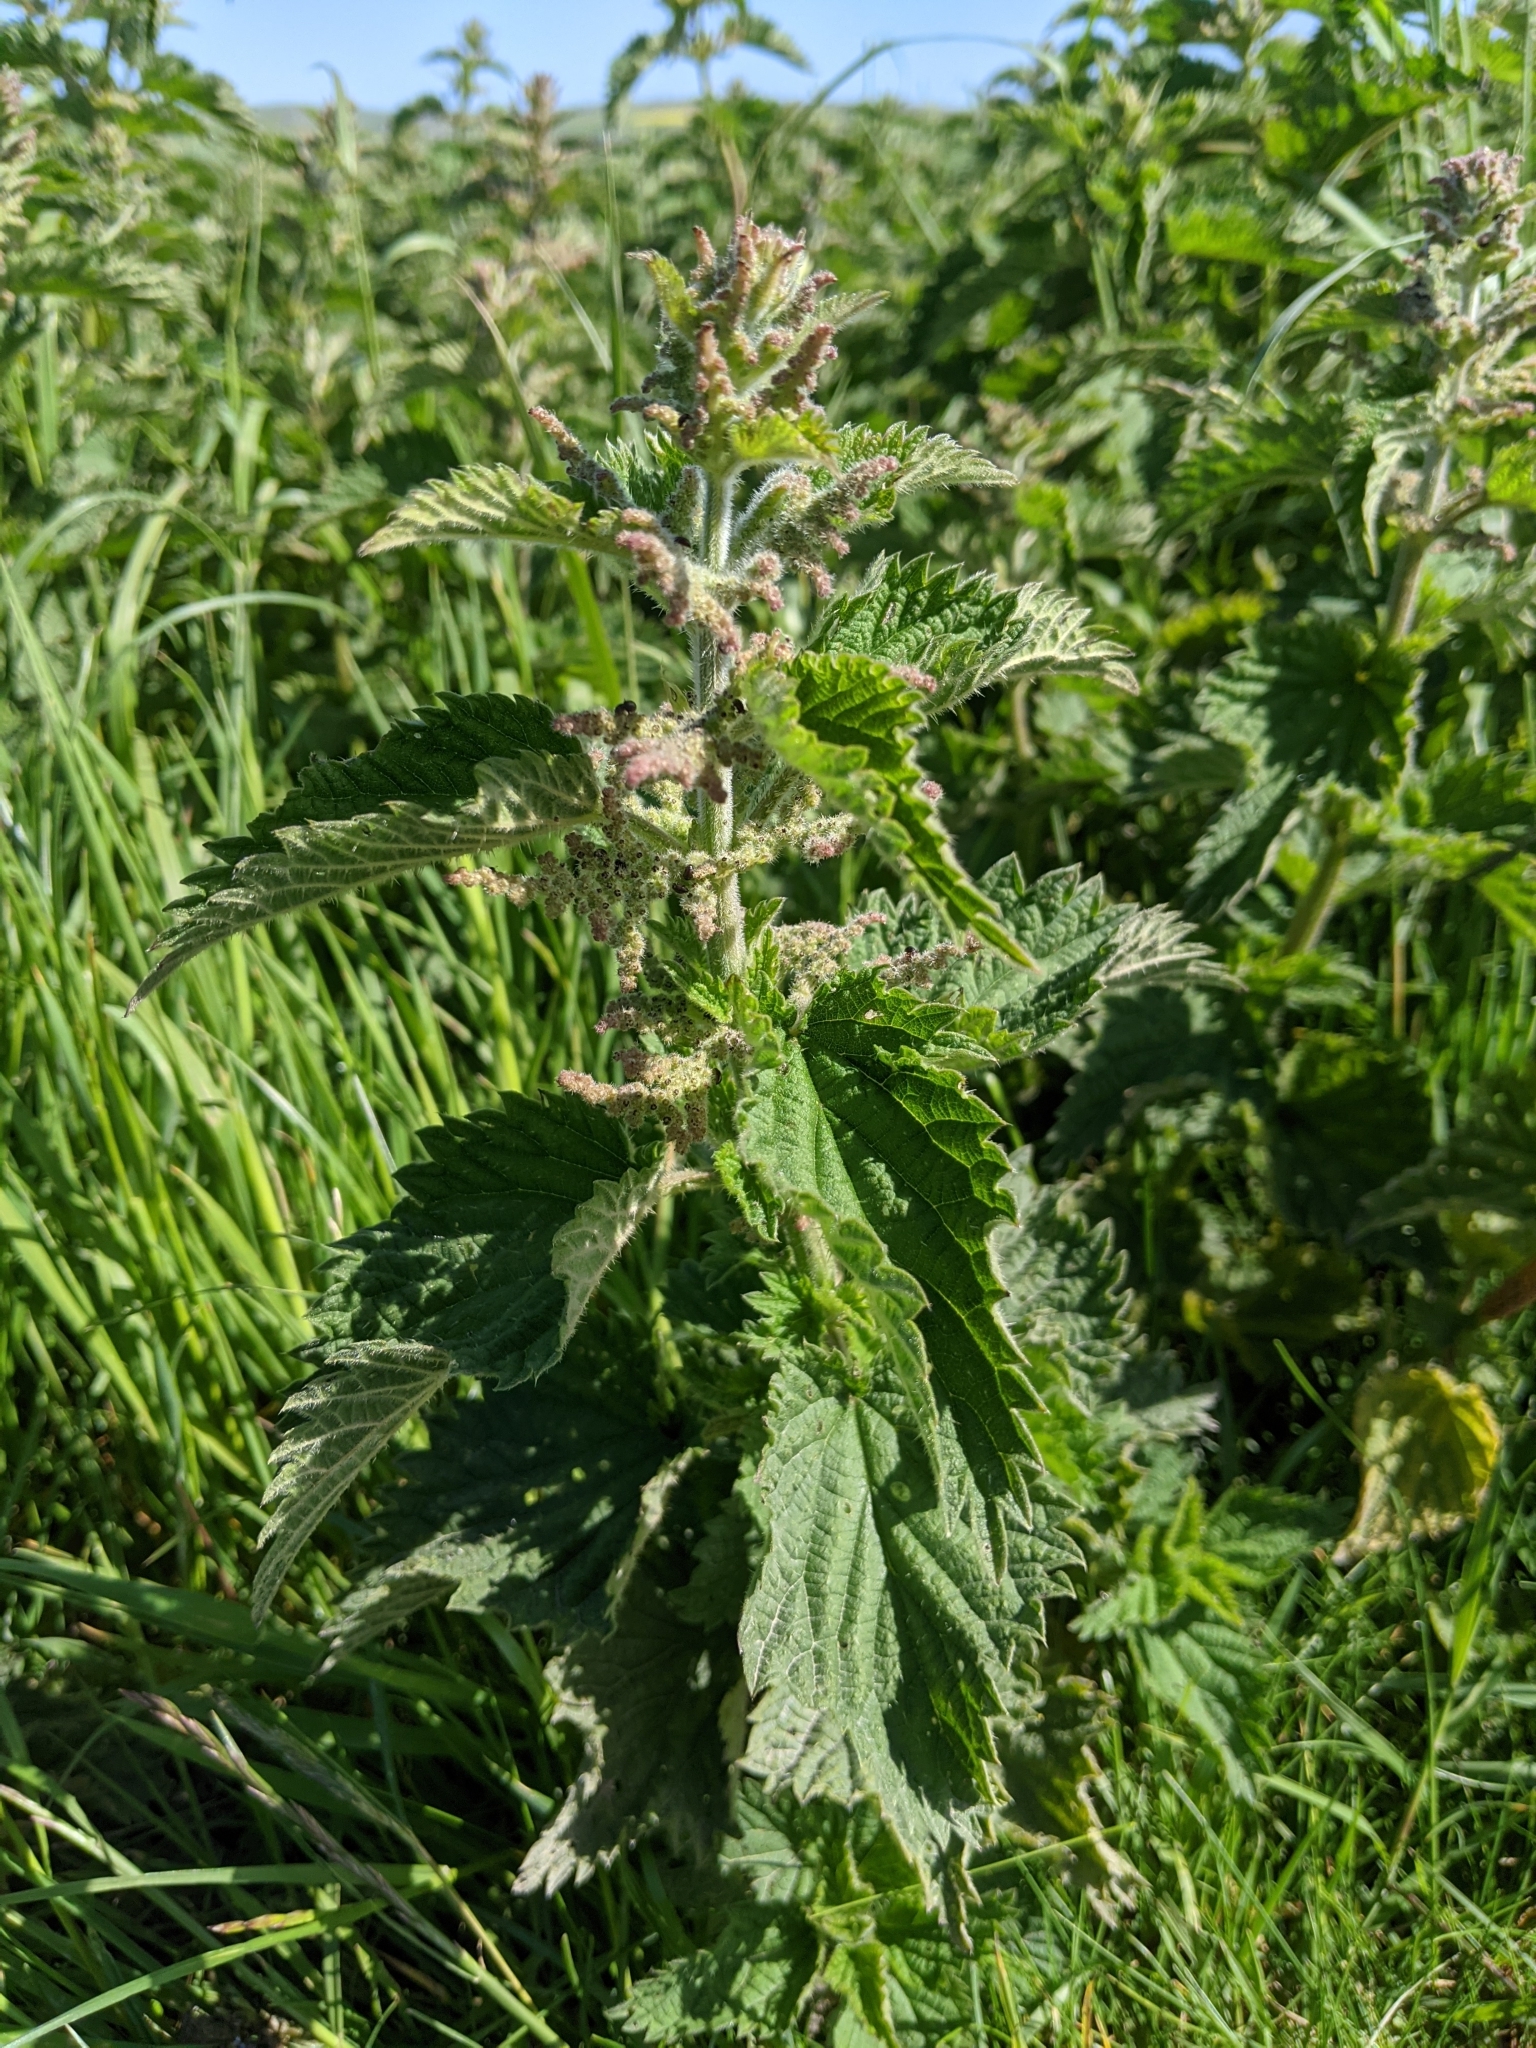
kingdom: Plantae
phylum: Tracheophyta
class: Magnoliopsida
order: Rosales
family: Urticaceae
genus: Urtica
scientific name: Urtica dioica
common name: Common nettle
